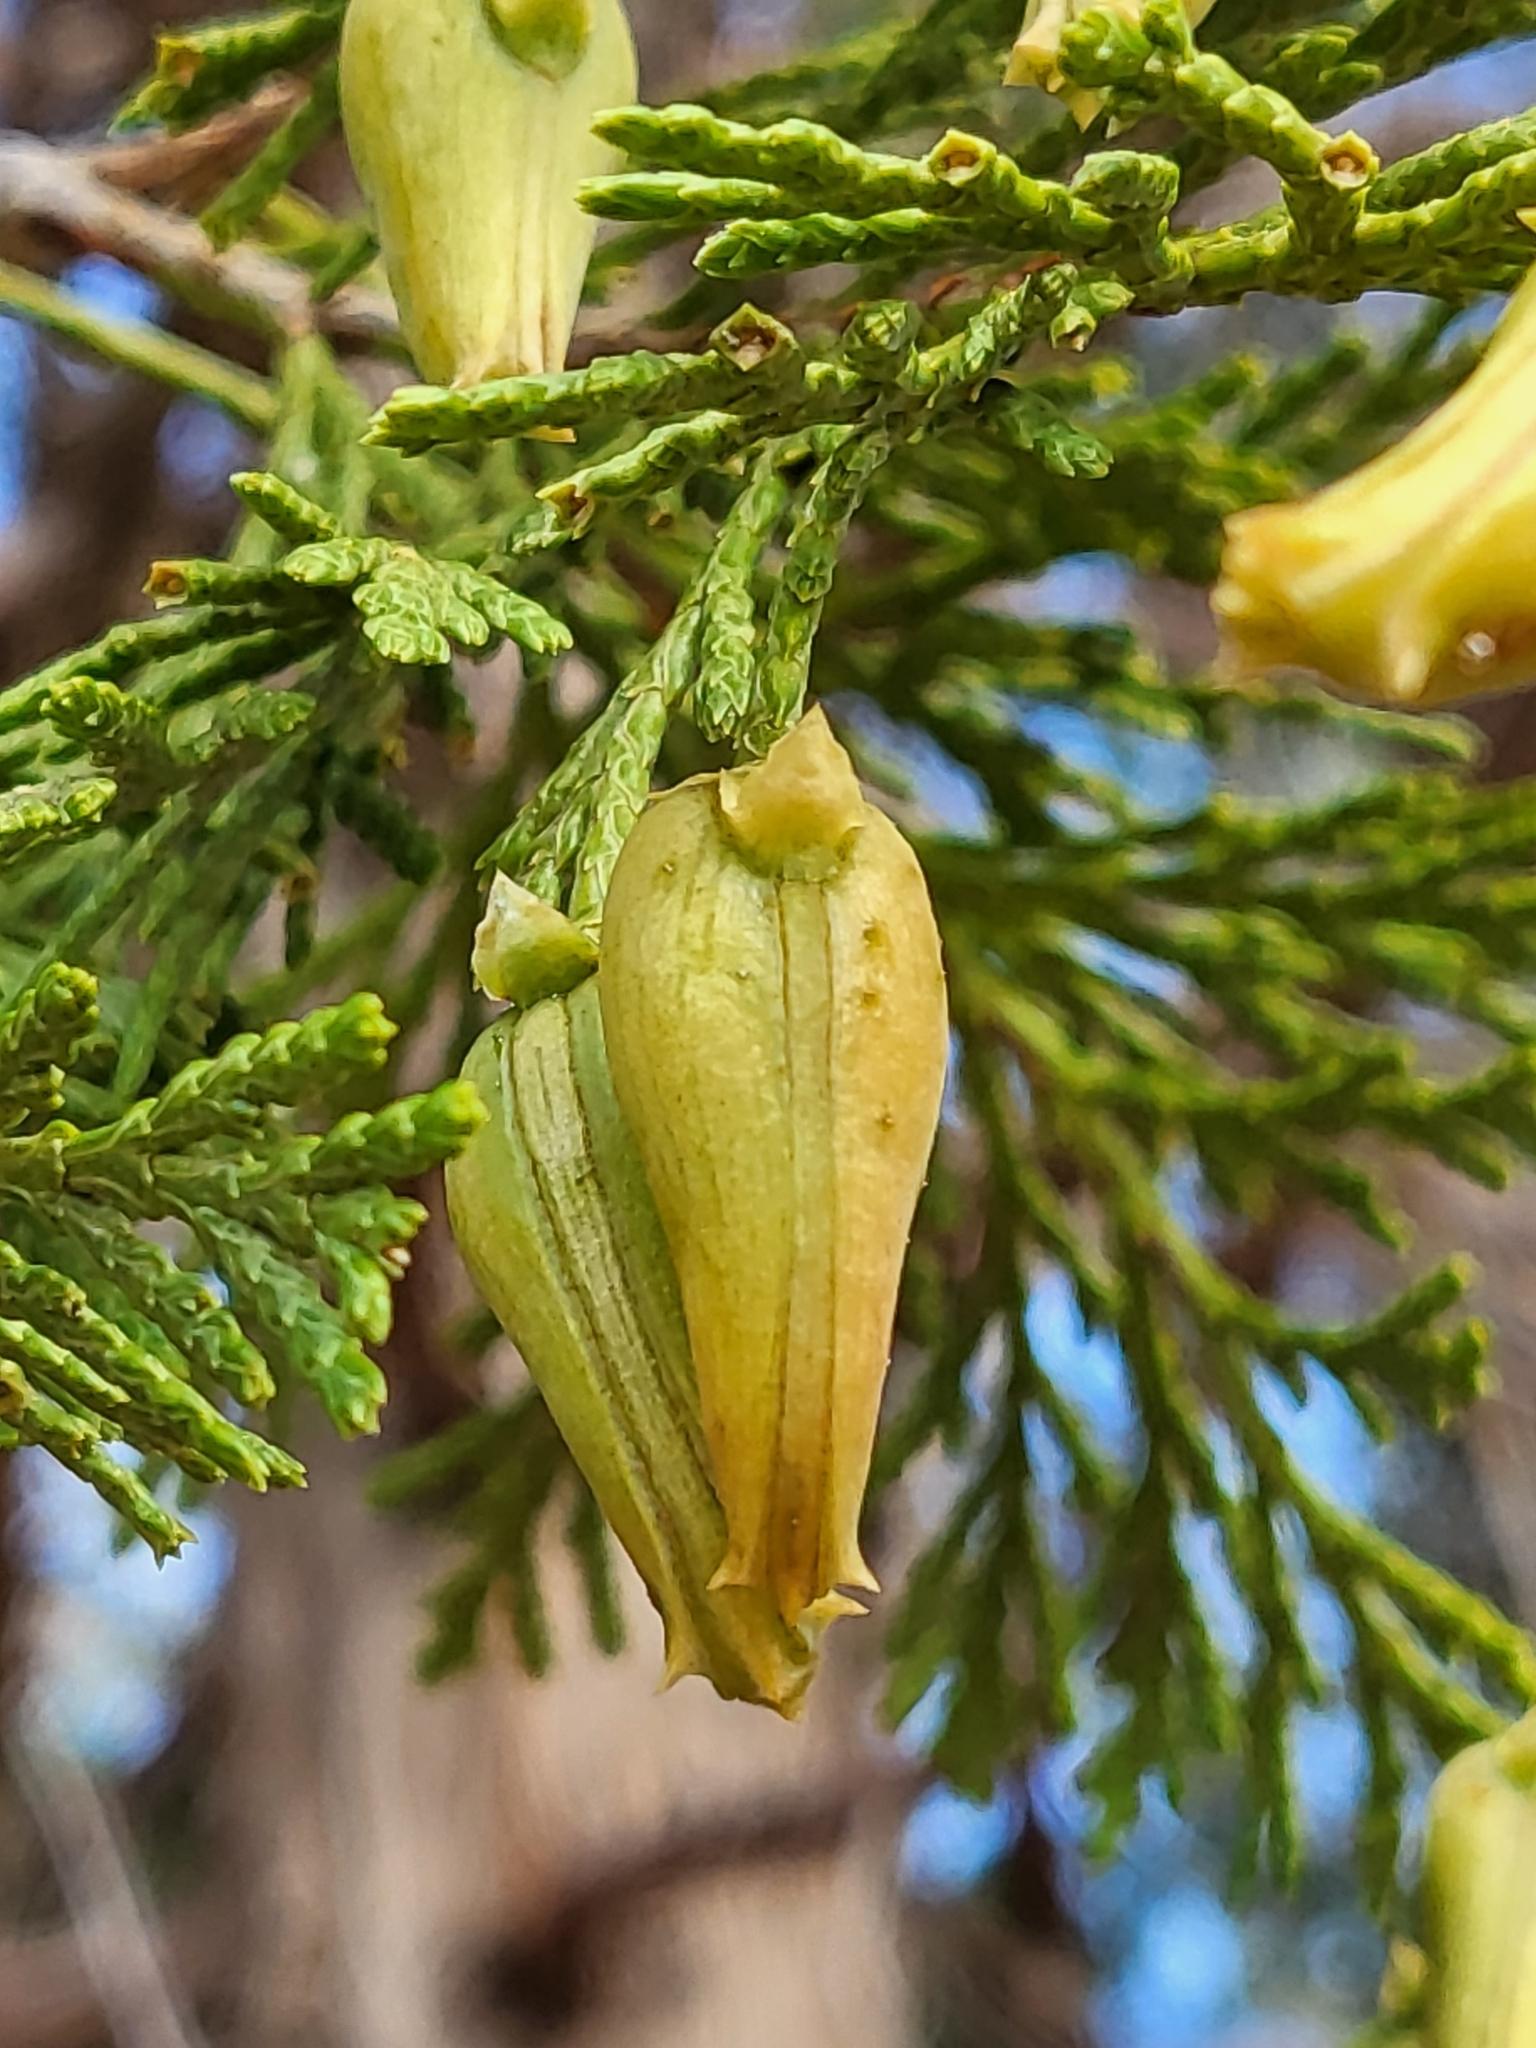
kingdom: Plantae
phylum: Tracheophyta
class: Pinopsida
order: Pinales
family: Cupressaceae
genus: Calocedrus
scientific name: Calocedrus decurrens
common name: Californian incense-cedar
